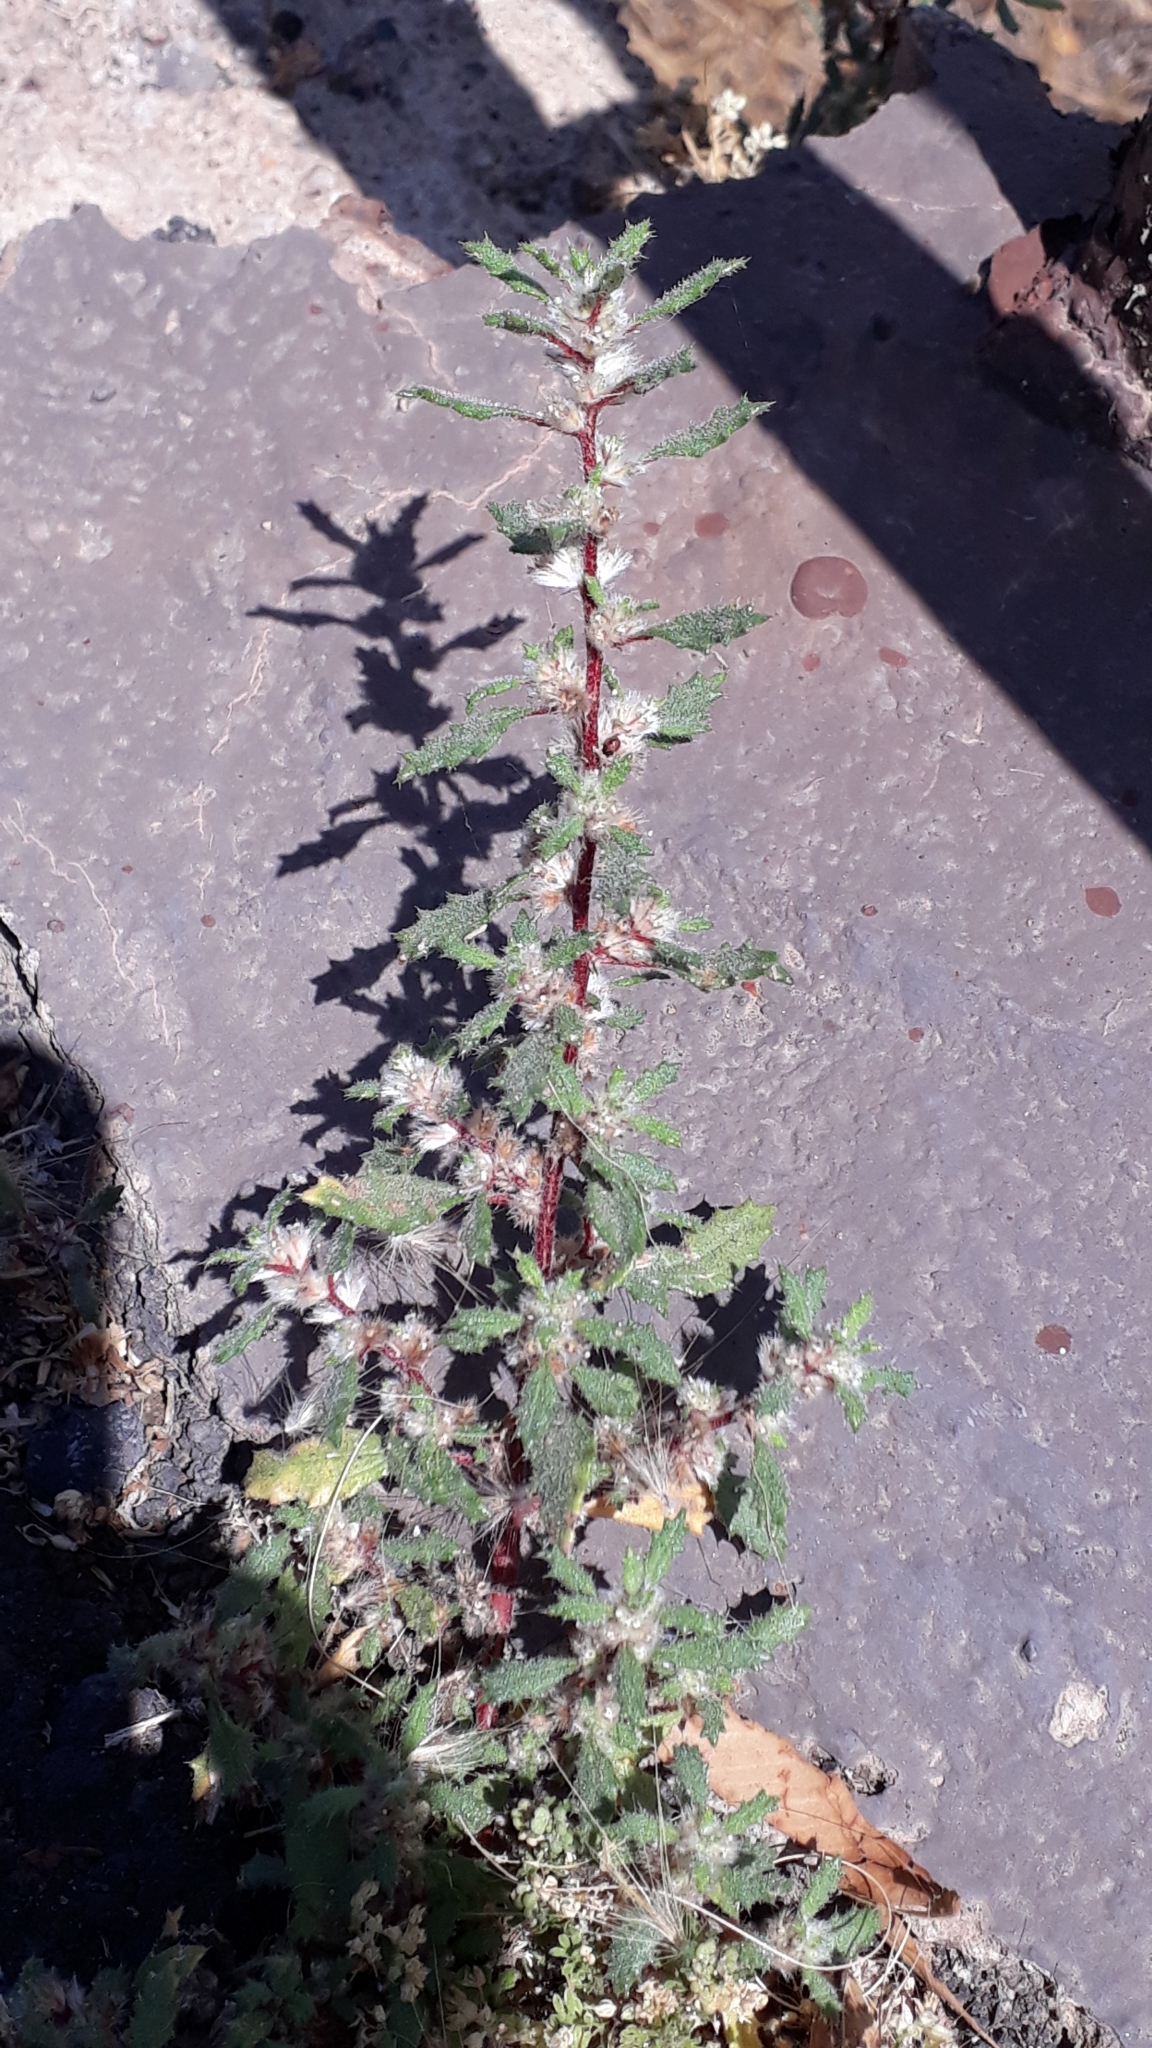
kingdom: Plantae
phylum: Tracheophyta
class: Magnoliopsida
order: Rosales
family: Urticaceae
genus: Forsskaolea
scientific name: Forsskaolea angustifolia
